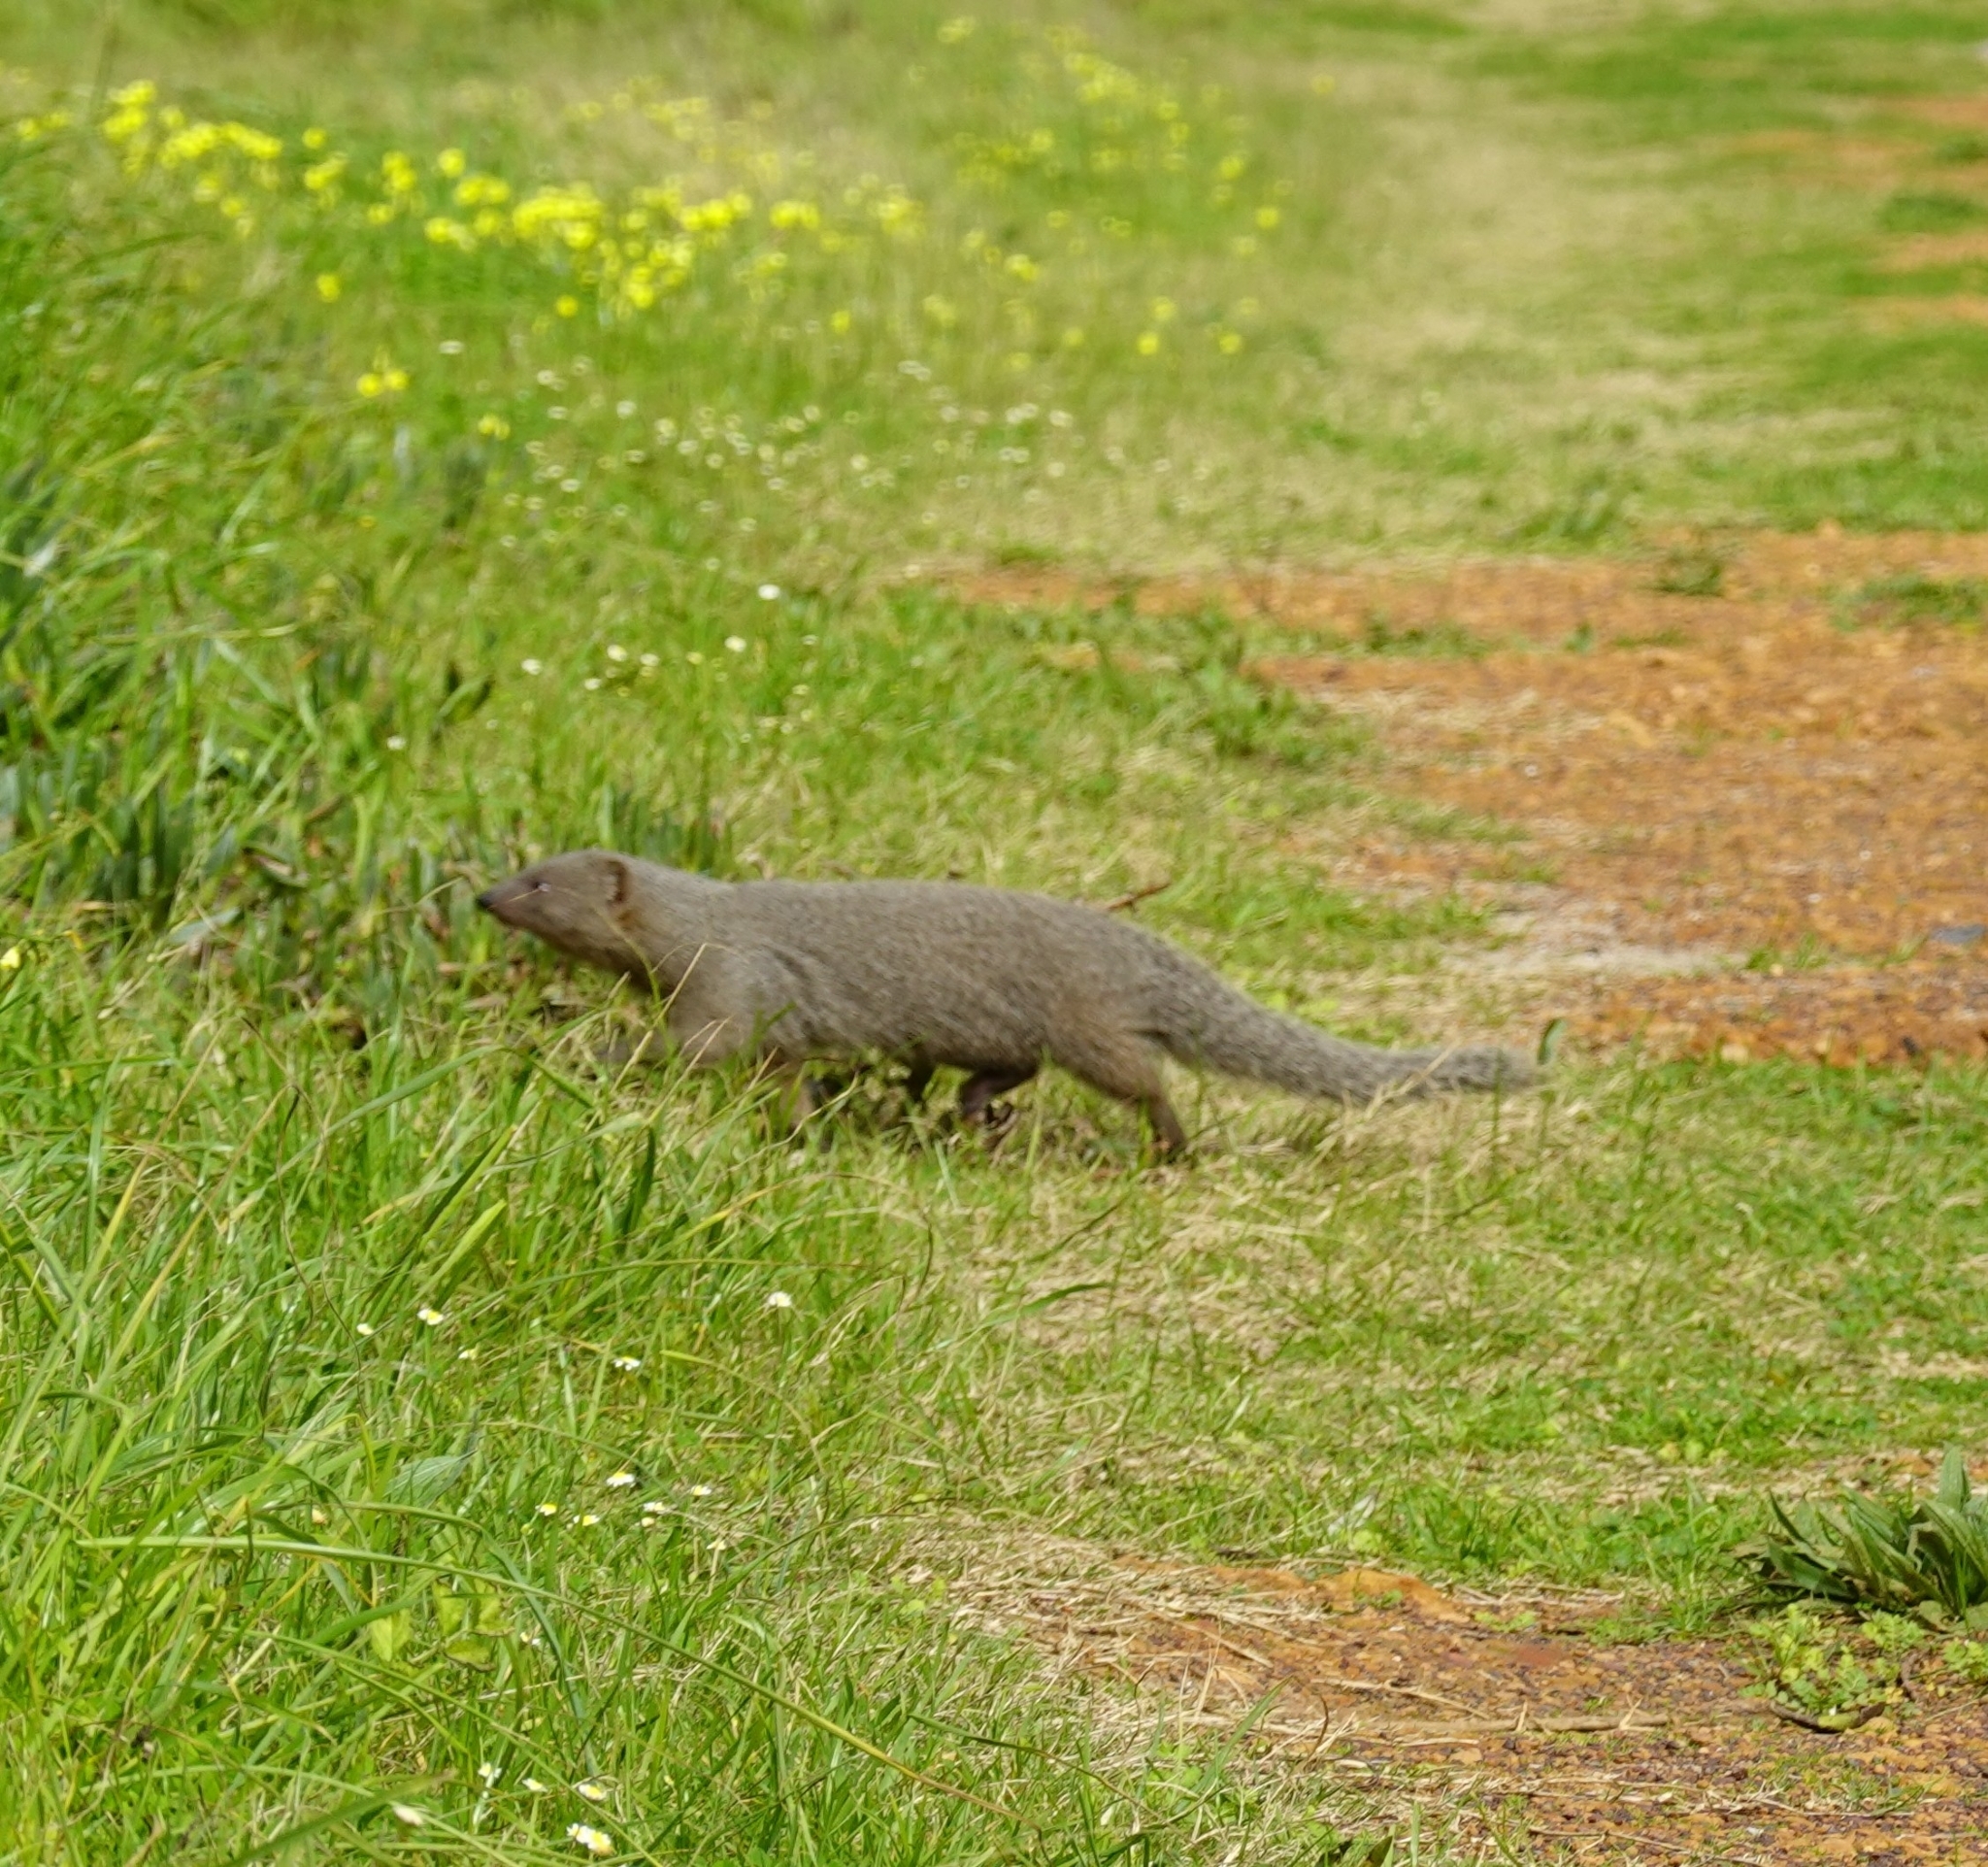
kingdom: Animalia
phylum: Chordata
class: Mammalia
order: Carnivora
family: Herpestidae
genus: Galerella
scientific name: Galerella pulverulenta
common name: Cape gray mongoose
